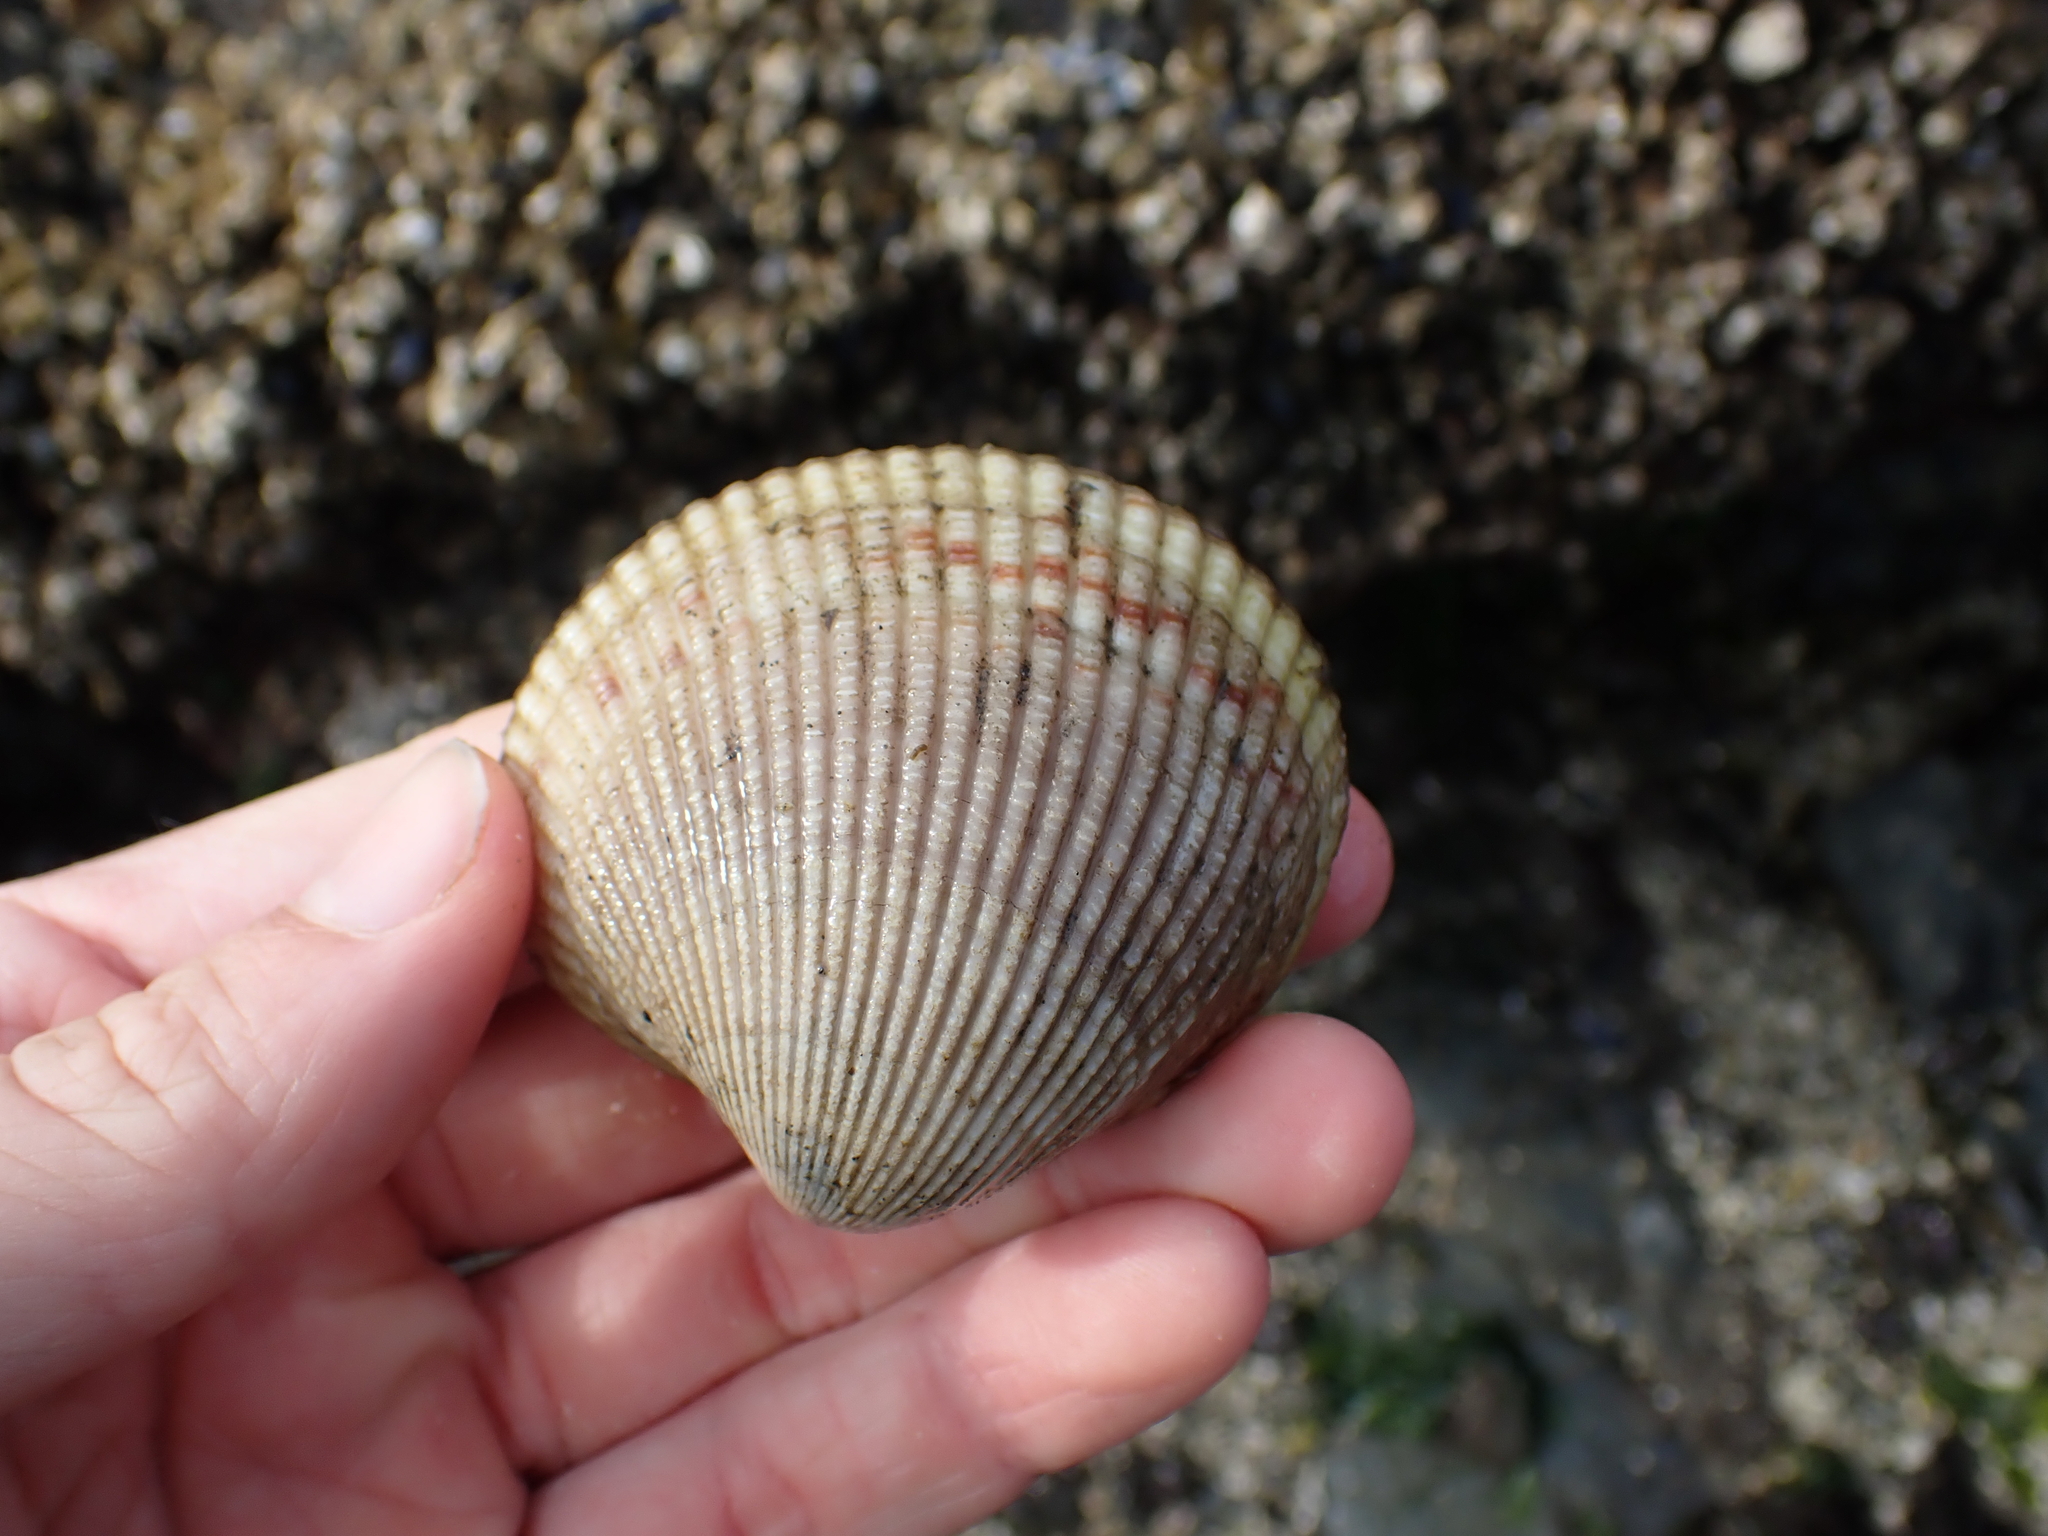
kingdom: Animalia
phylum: Mollusca
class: Bivalvia
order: Cardiida
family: Cardiidae
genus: Clinocardium
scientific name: Clinocardium nuttallii
